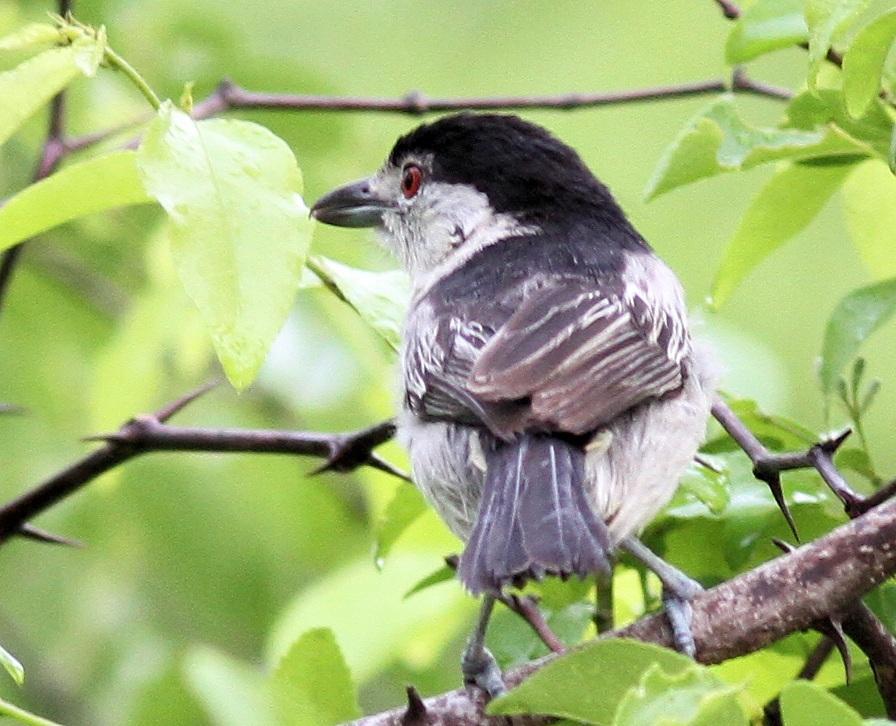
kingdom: Animalia
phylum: Chordata
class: Aves
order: Passeriformes
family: Malaconotidae
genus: Dryoscopus
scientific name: Dryoscopus cubla
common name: Black-backed puffback
